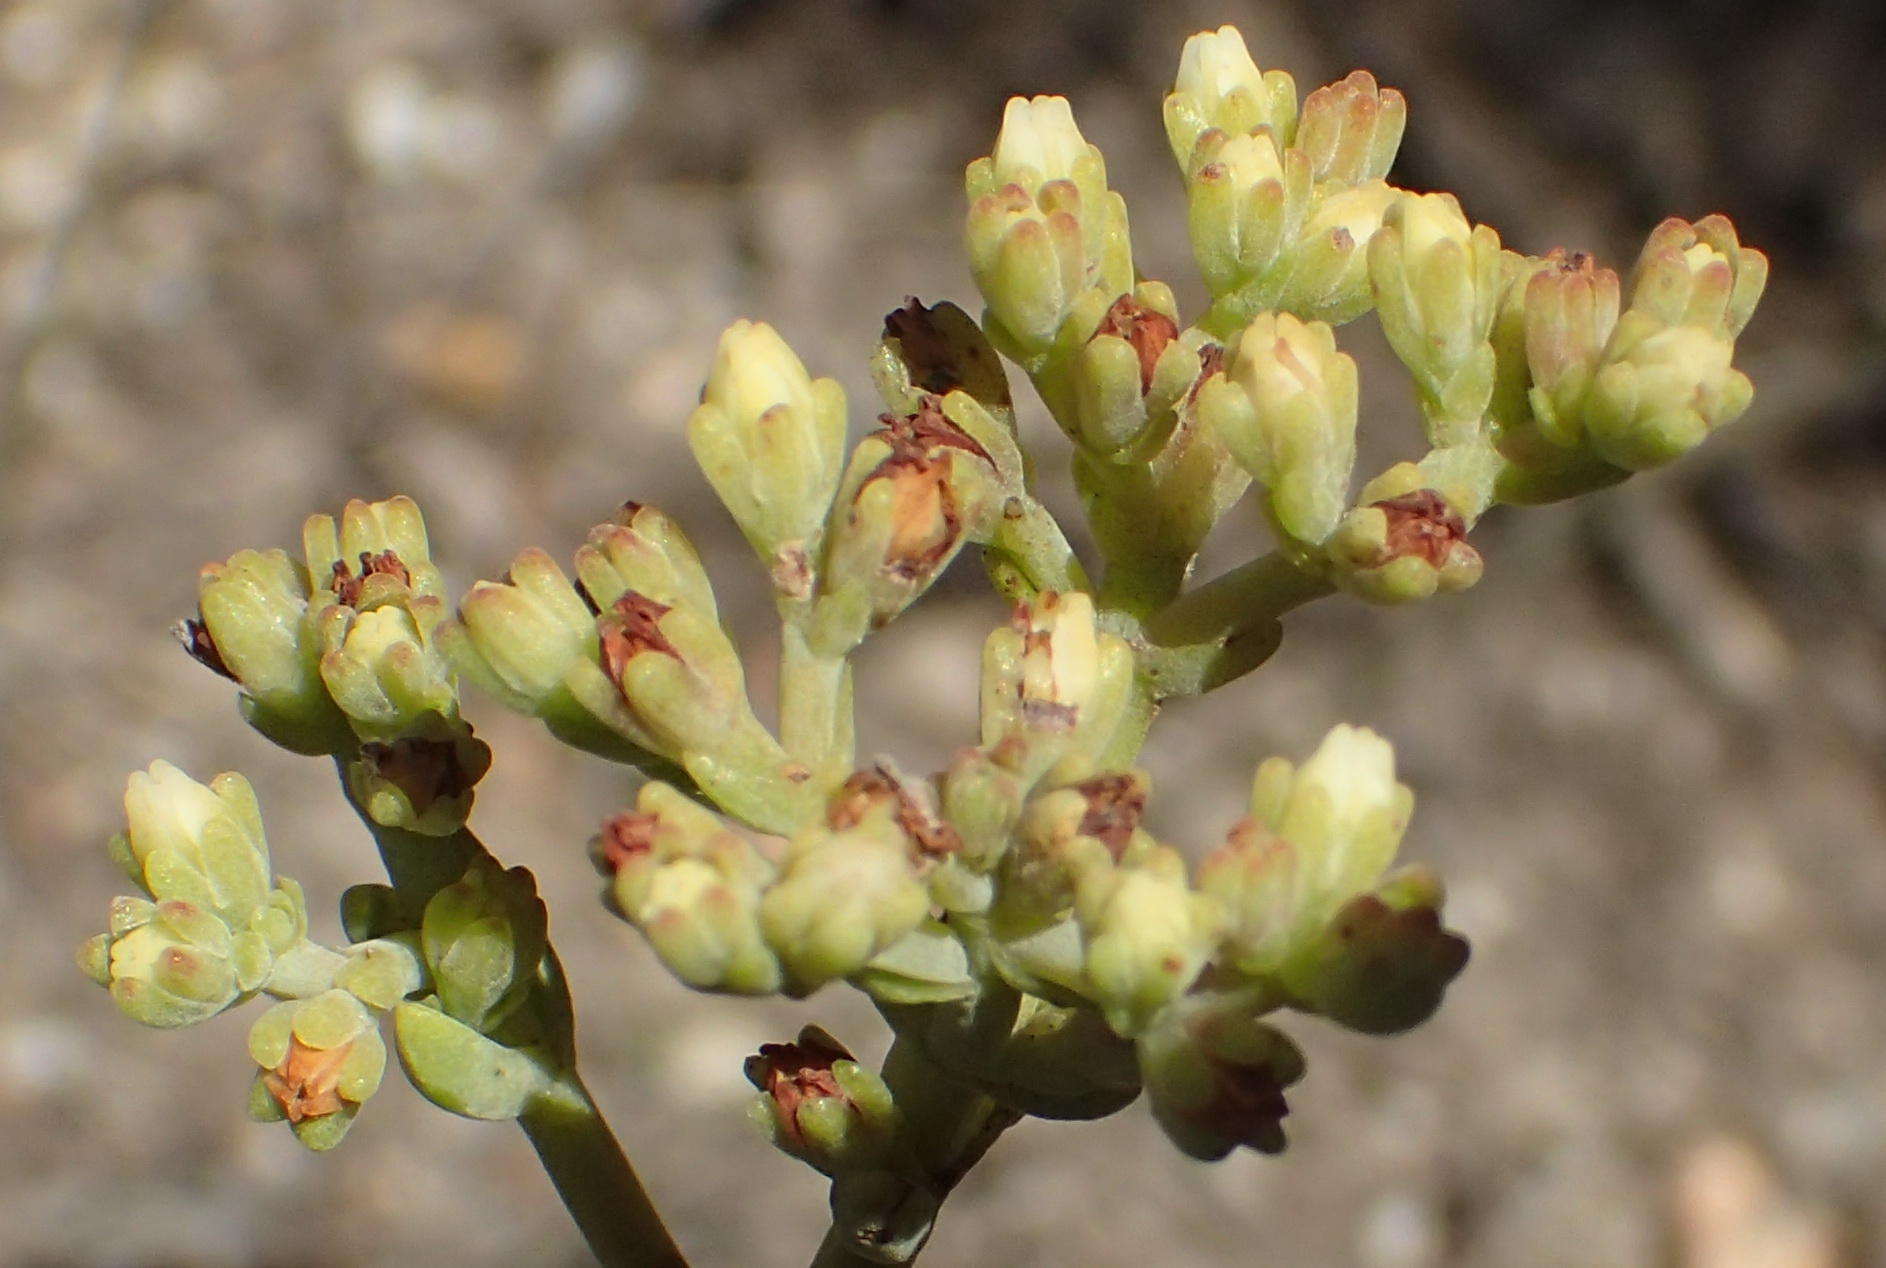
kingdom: Plantae
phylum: Tracheophyta
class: Magnoliopsida
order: Saxifragales
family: Crassulaceae
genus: Crassula
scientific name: Crassula mollis
